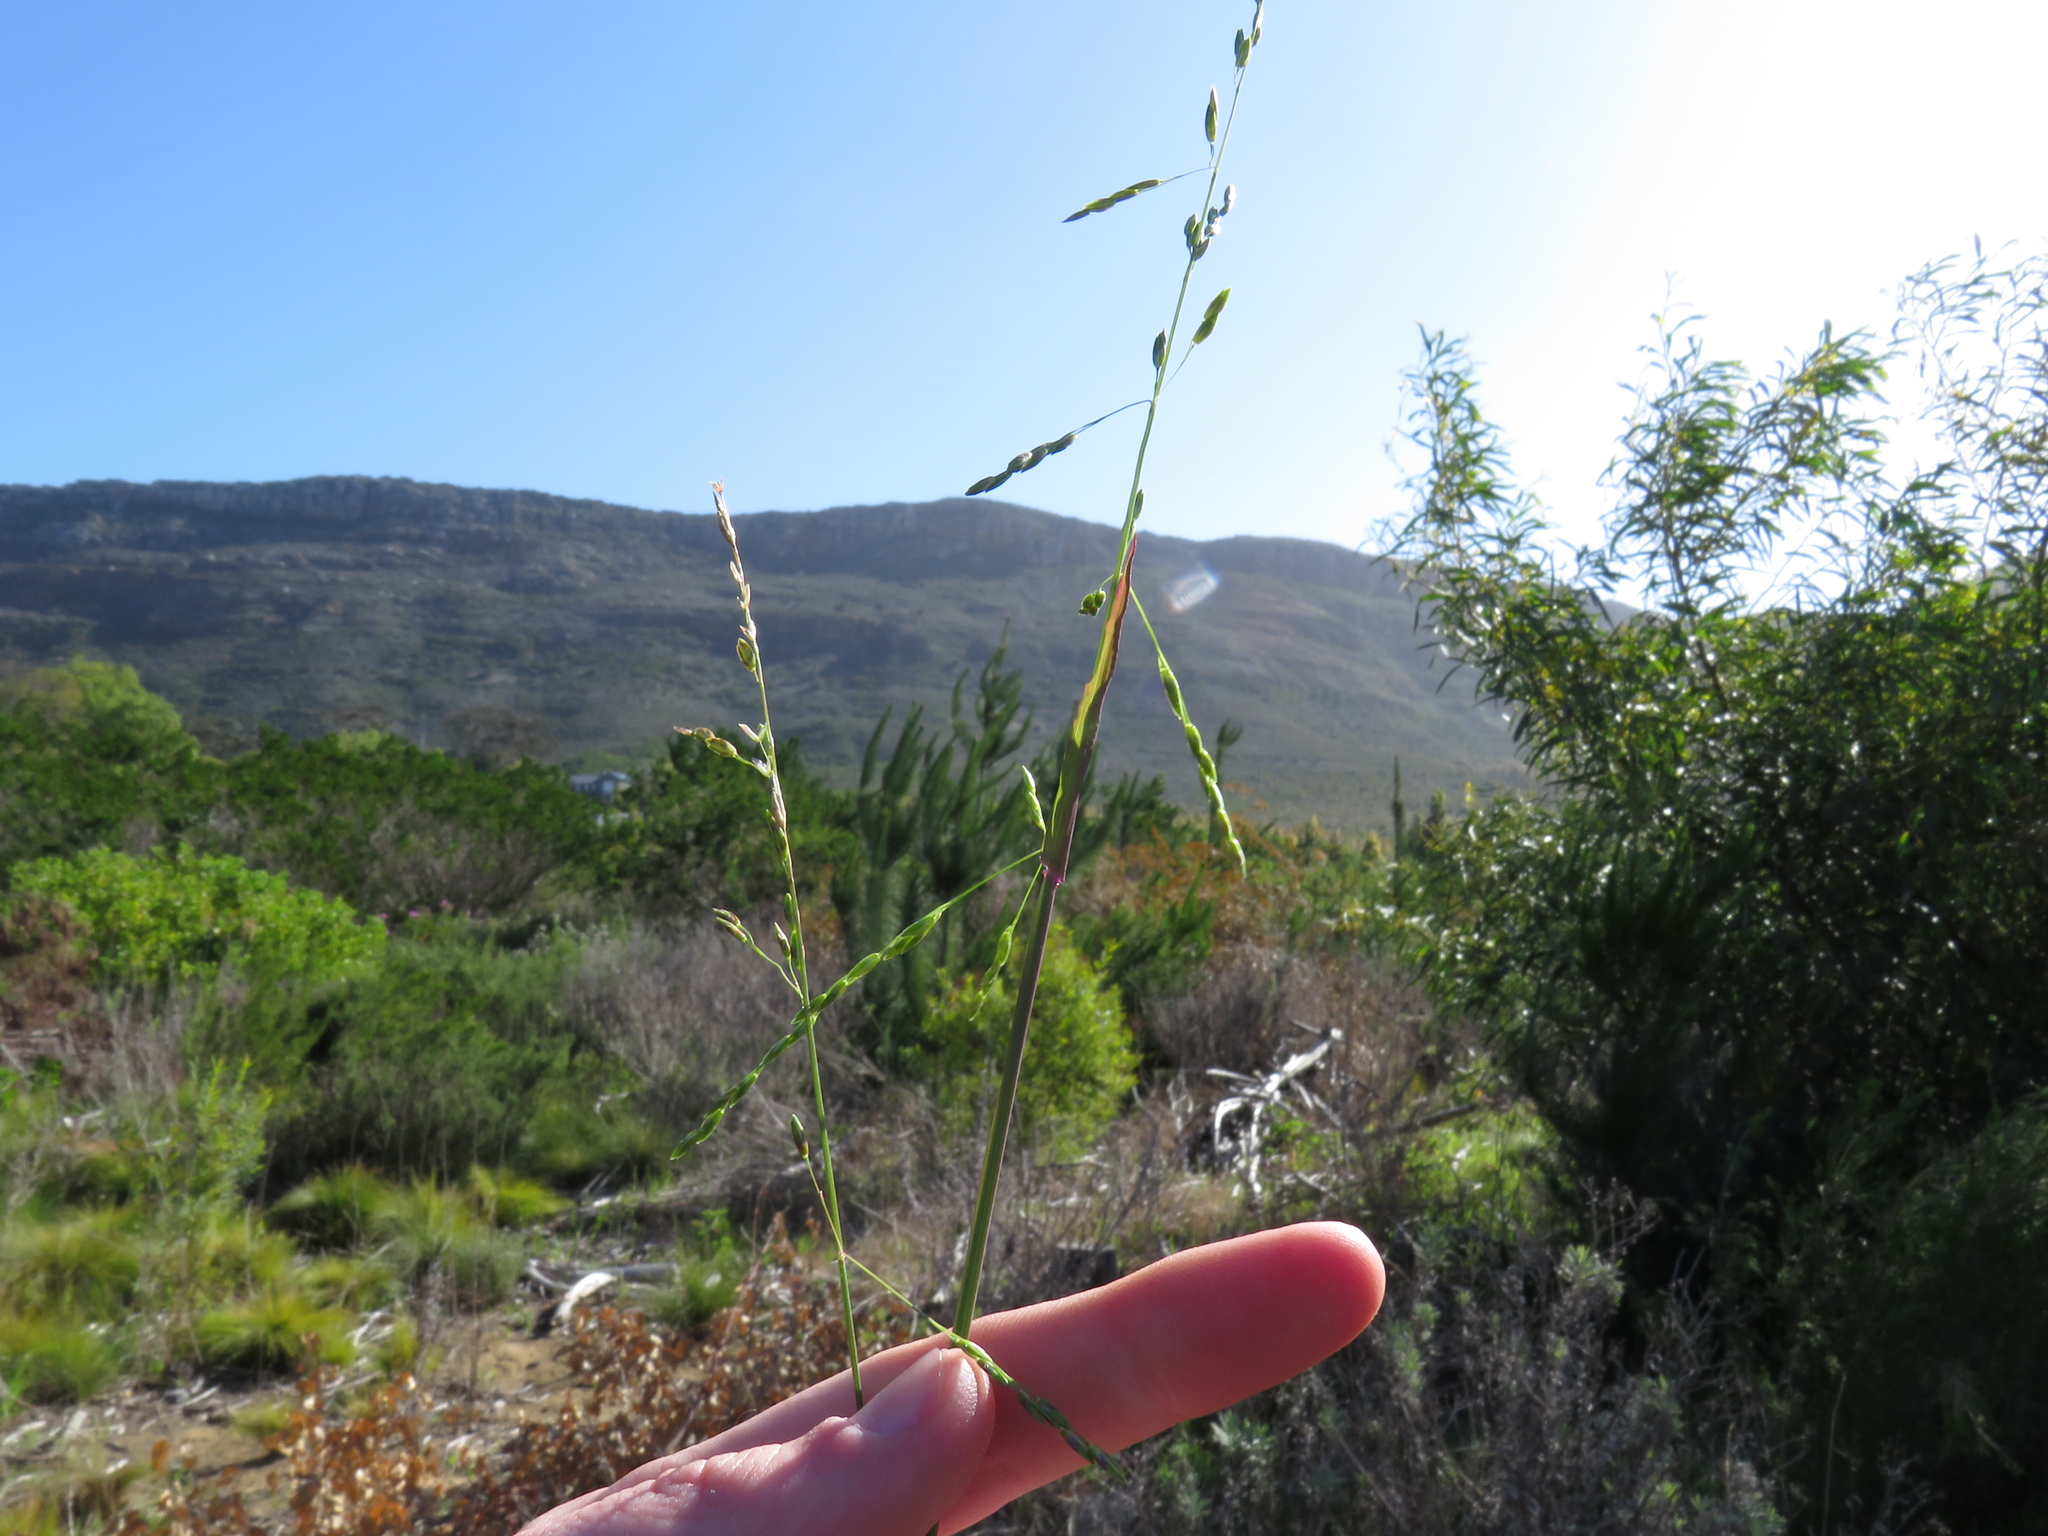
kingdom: Plantae
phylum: Tracheophyta
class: Liliopsida
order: Poales
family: Poaceae
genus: Ehrharta
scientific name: Ehrharta erecta
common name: Panic veldtgrass
